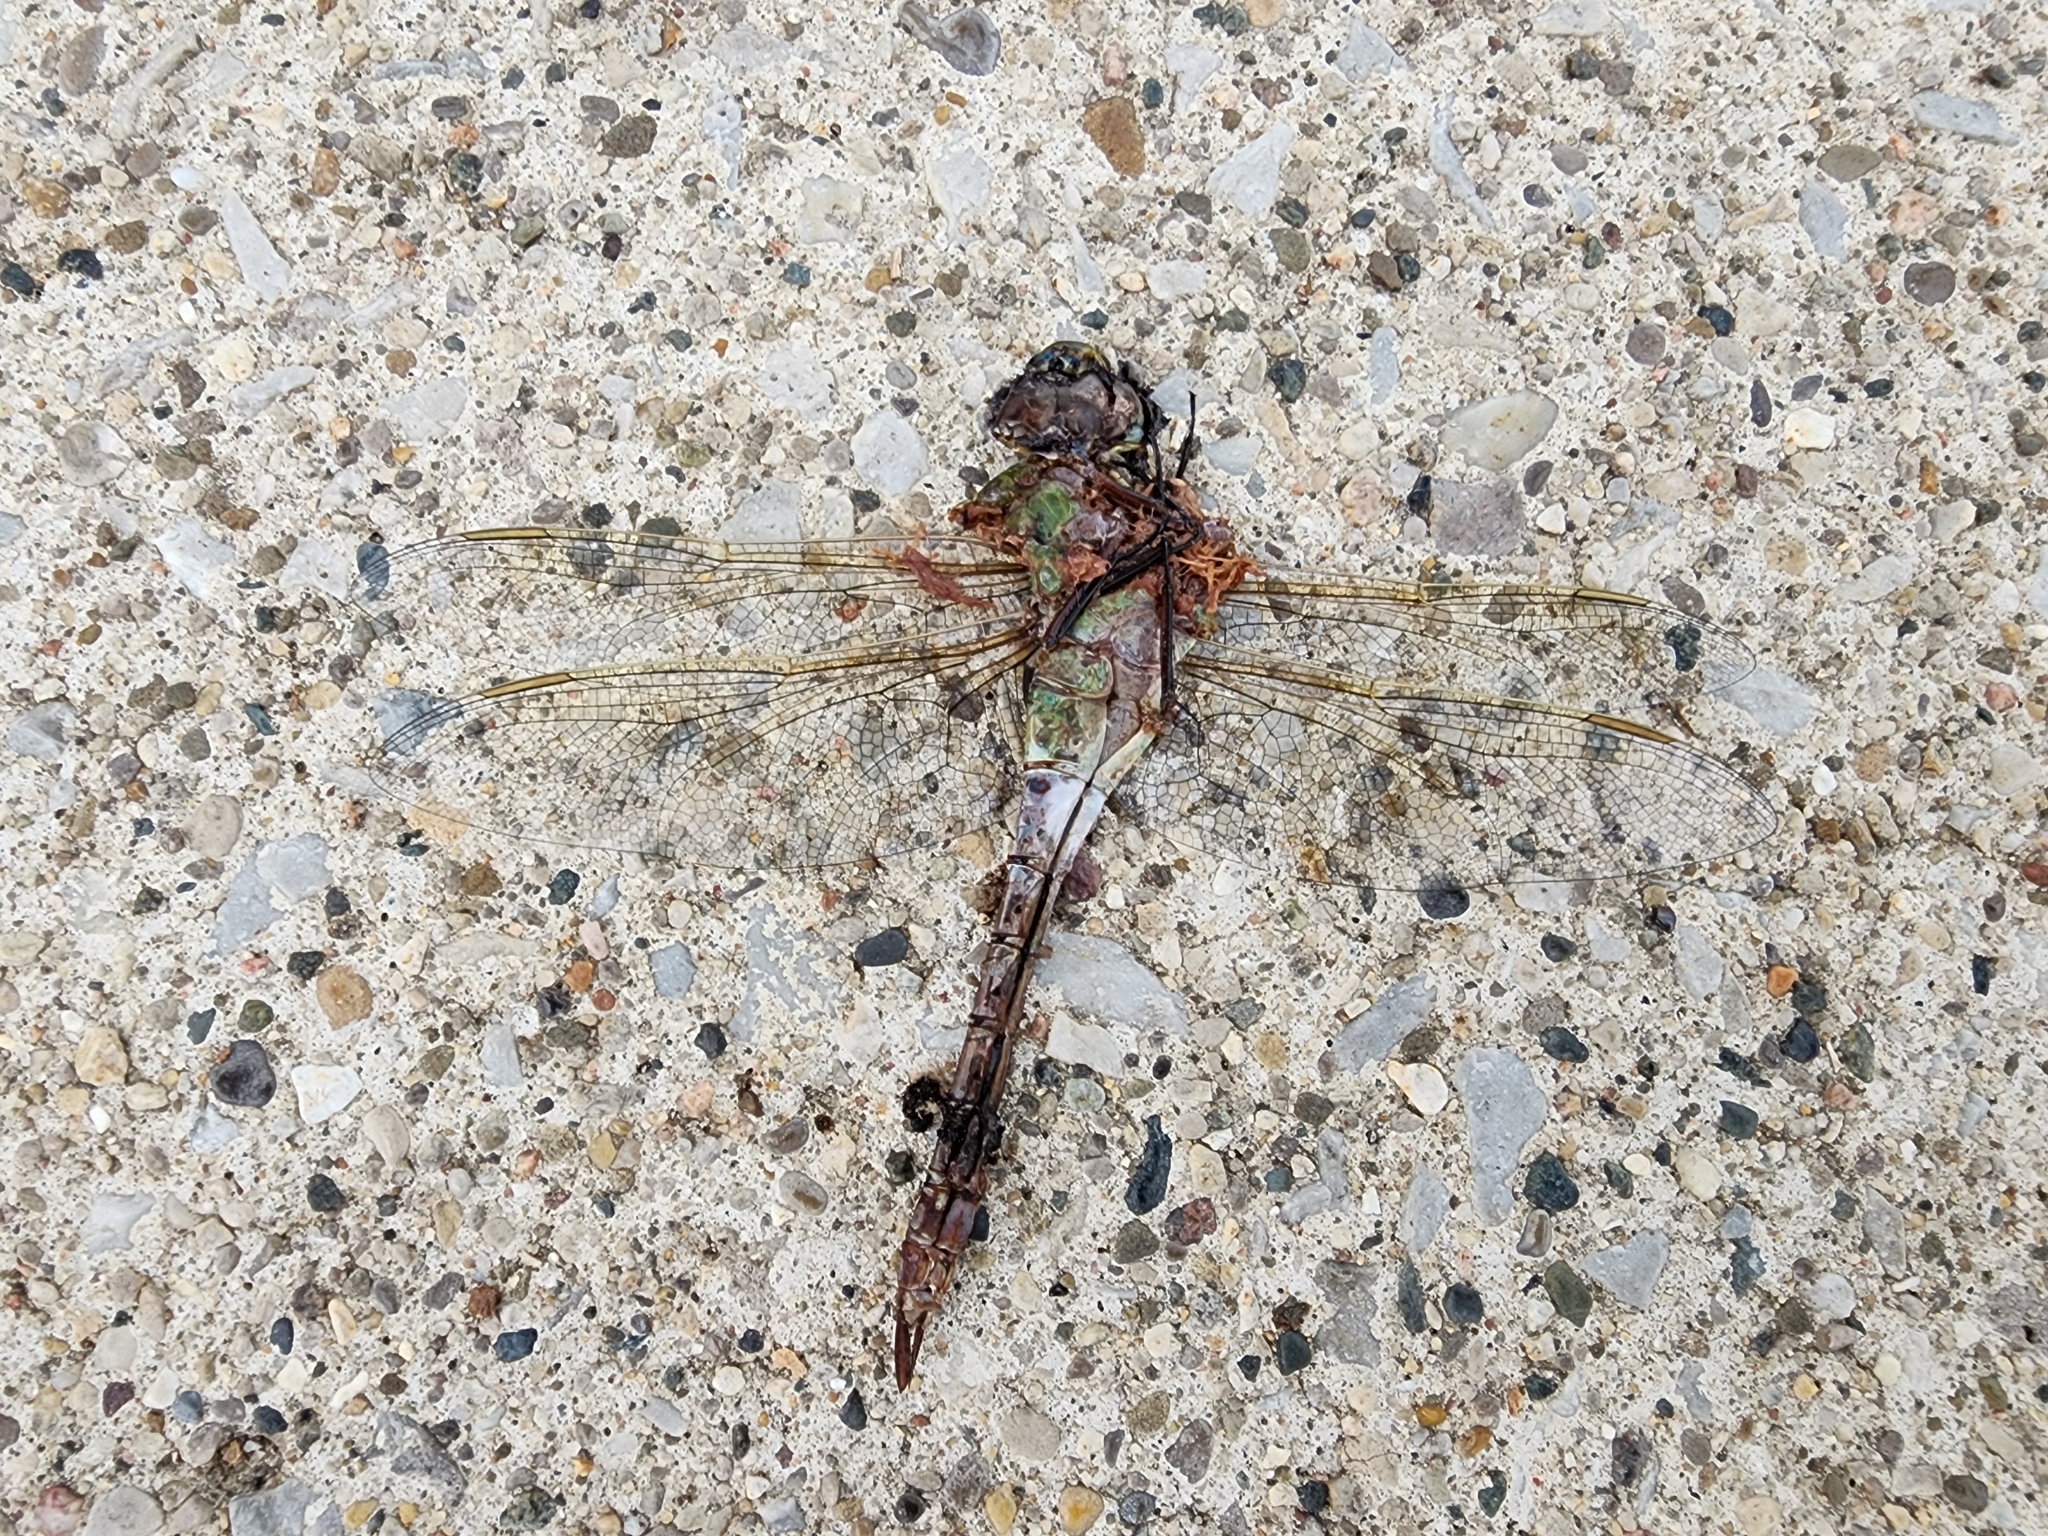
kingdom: Animalia
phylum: Arthropoda
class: Insecta
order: Odonata
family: Aeshnidae
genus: Anax
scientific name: Anax junius
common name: Common green darner
